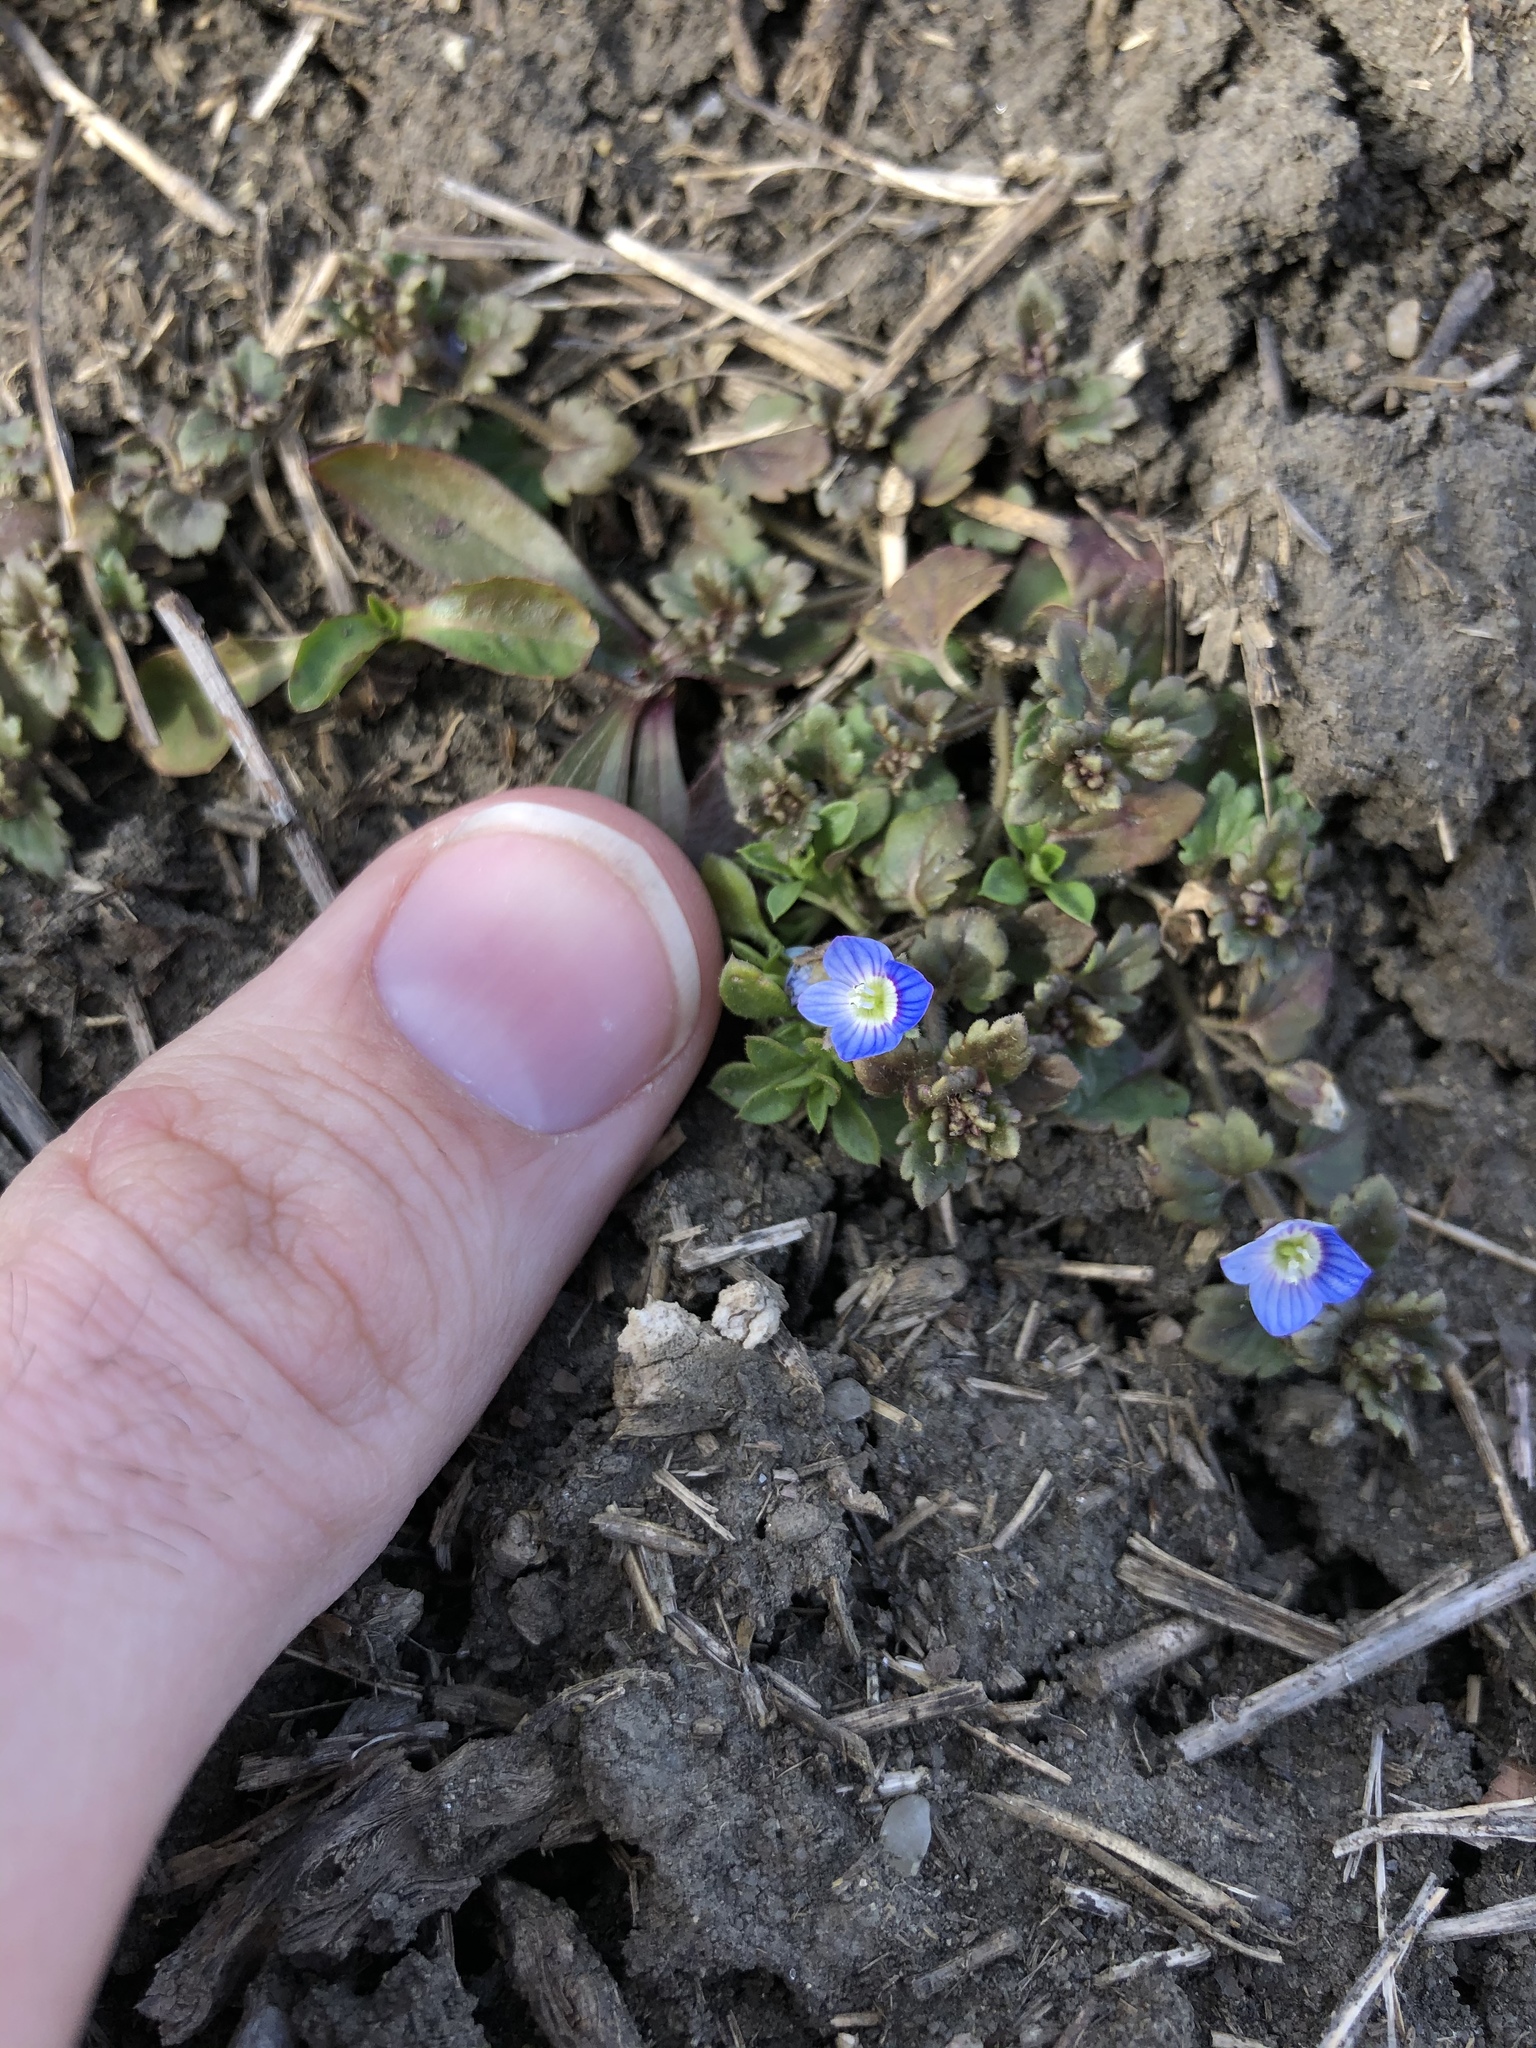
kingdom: Plantae
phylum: Tracheophyta
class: Magnoliopsida
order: Lamiales
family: Plantaginaceae
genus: Veronica
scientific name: Veronica polita
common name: Grey field-speedwell
